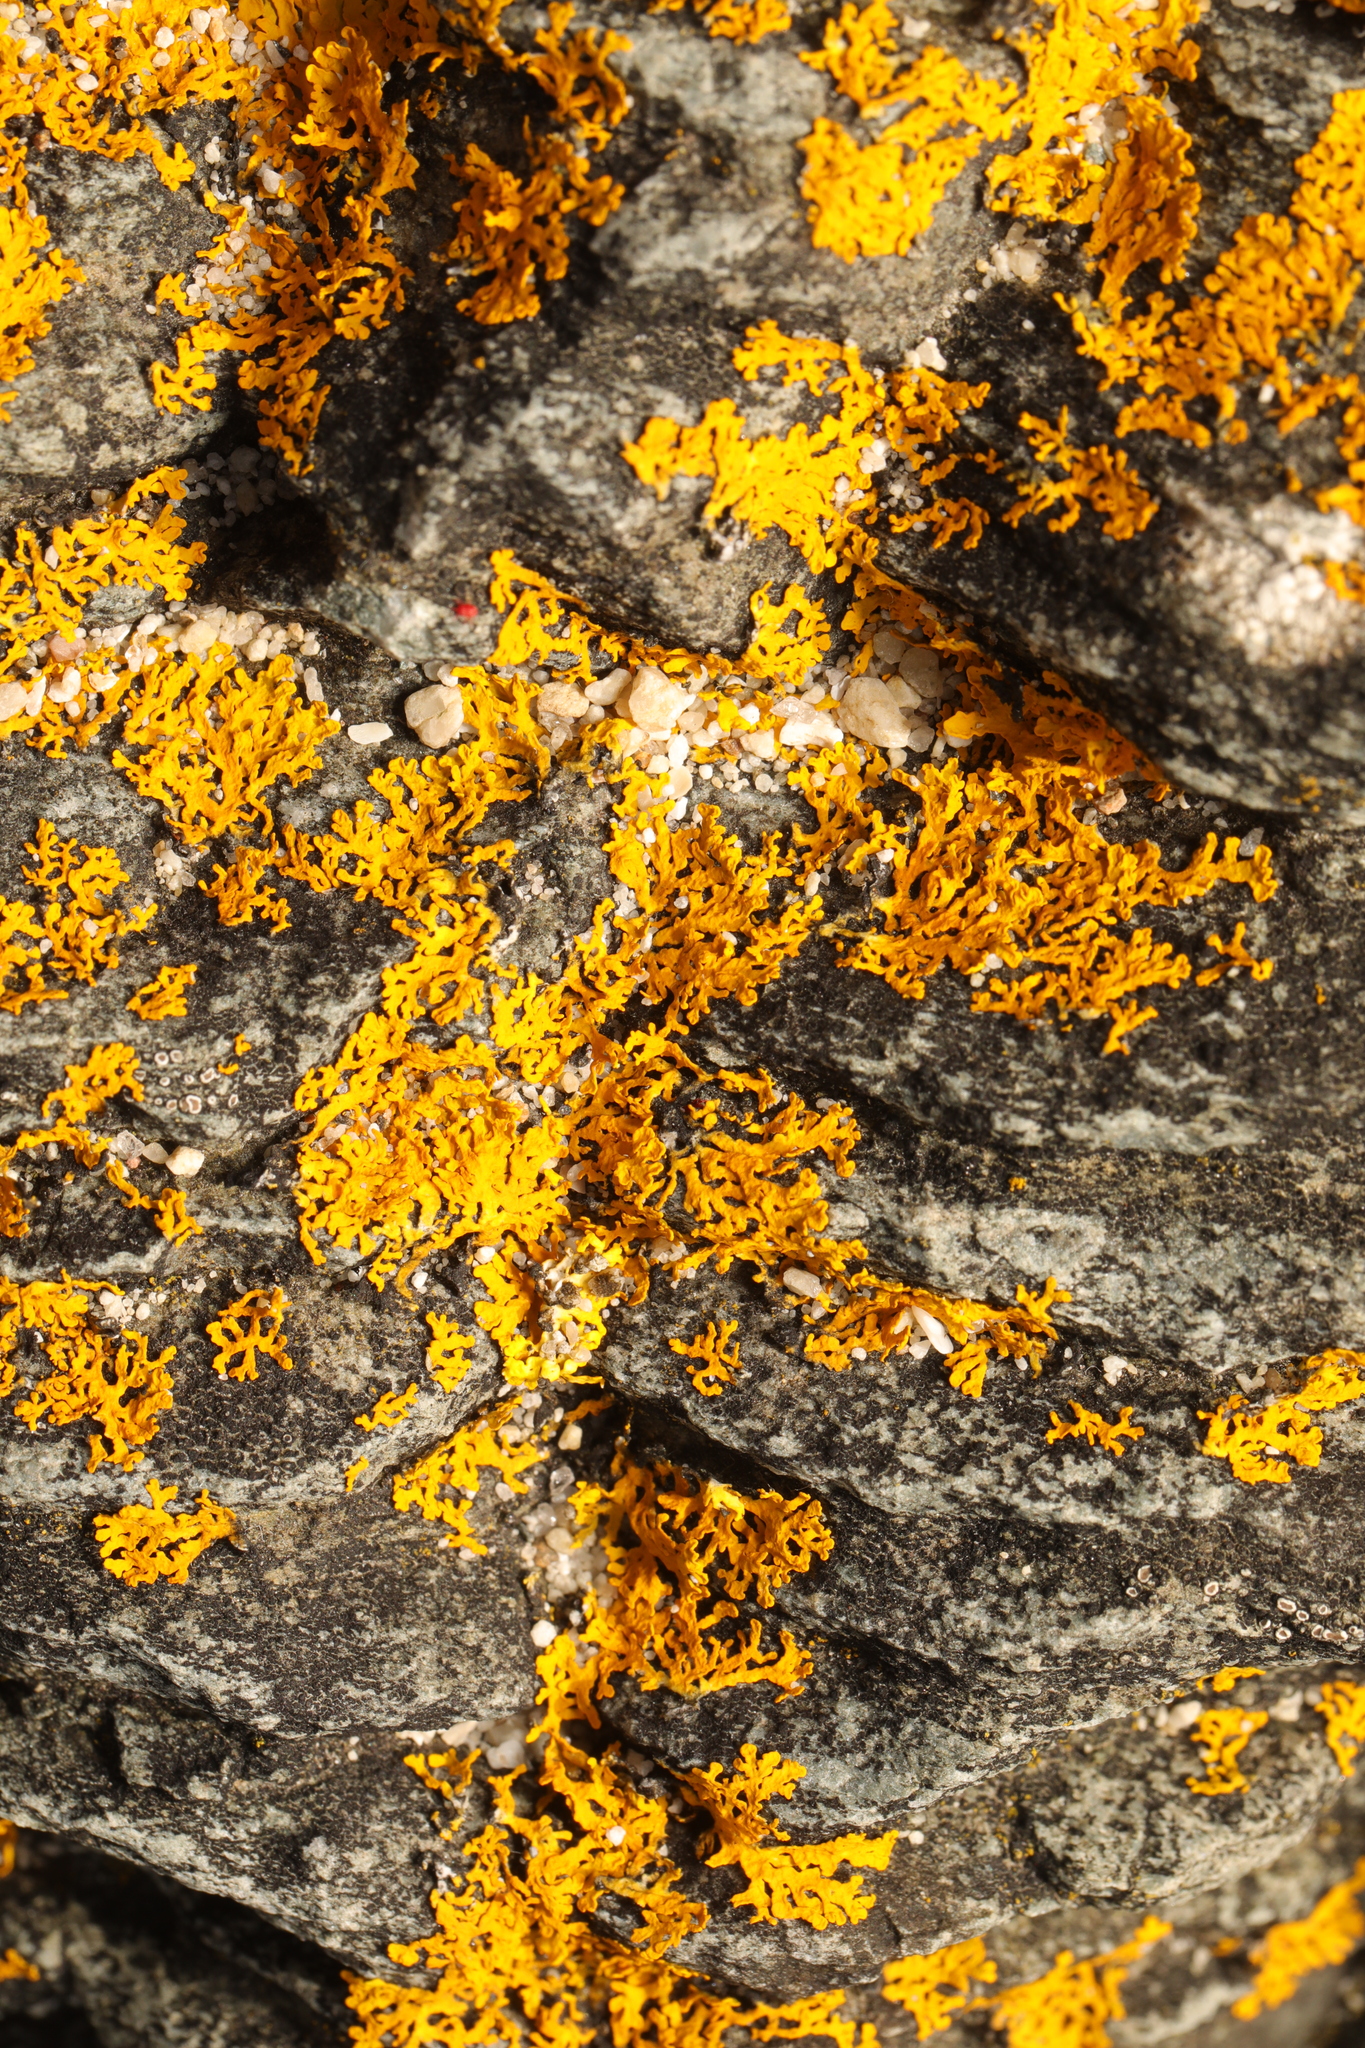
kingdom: Fungi
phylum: Ascomycota
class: Lecanoromycetes
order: Teloschistales
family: Teloschistaceae
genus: Xanthoria
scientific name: Xanthoria aureola
